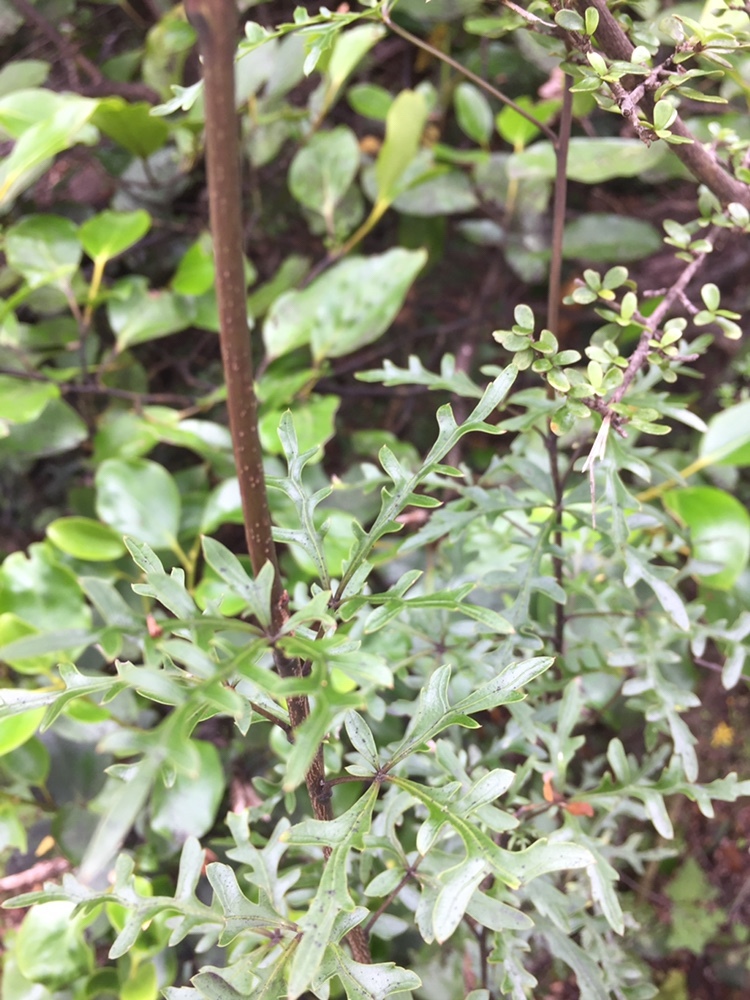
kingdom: Plantae
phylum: Tracheophyta
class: Magnoliopsida
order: Apiales
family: Araliaceae
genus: Raukaua
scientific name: Raukaua simplex
